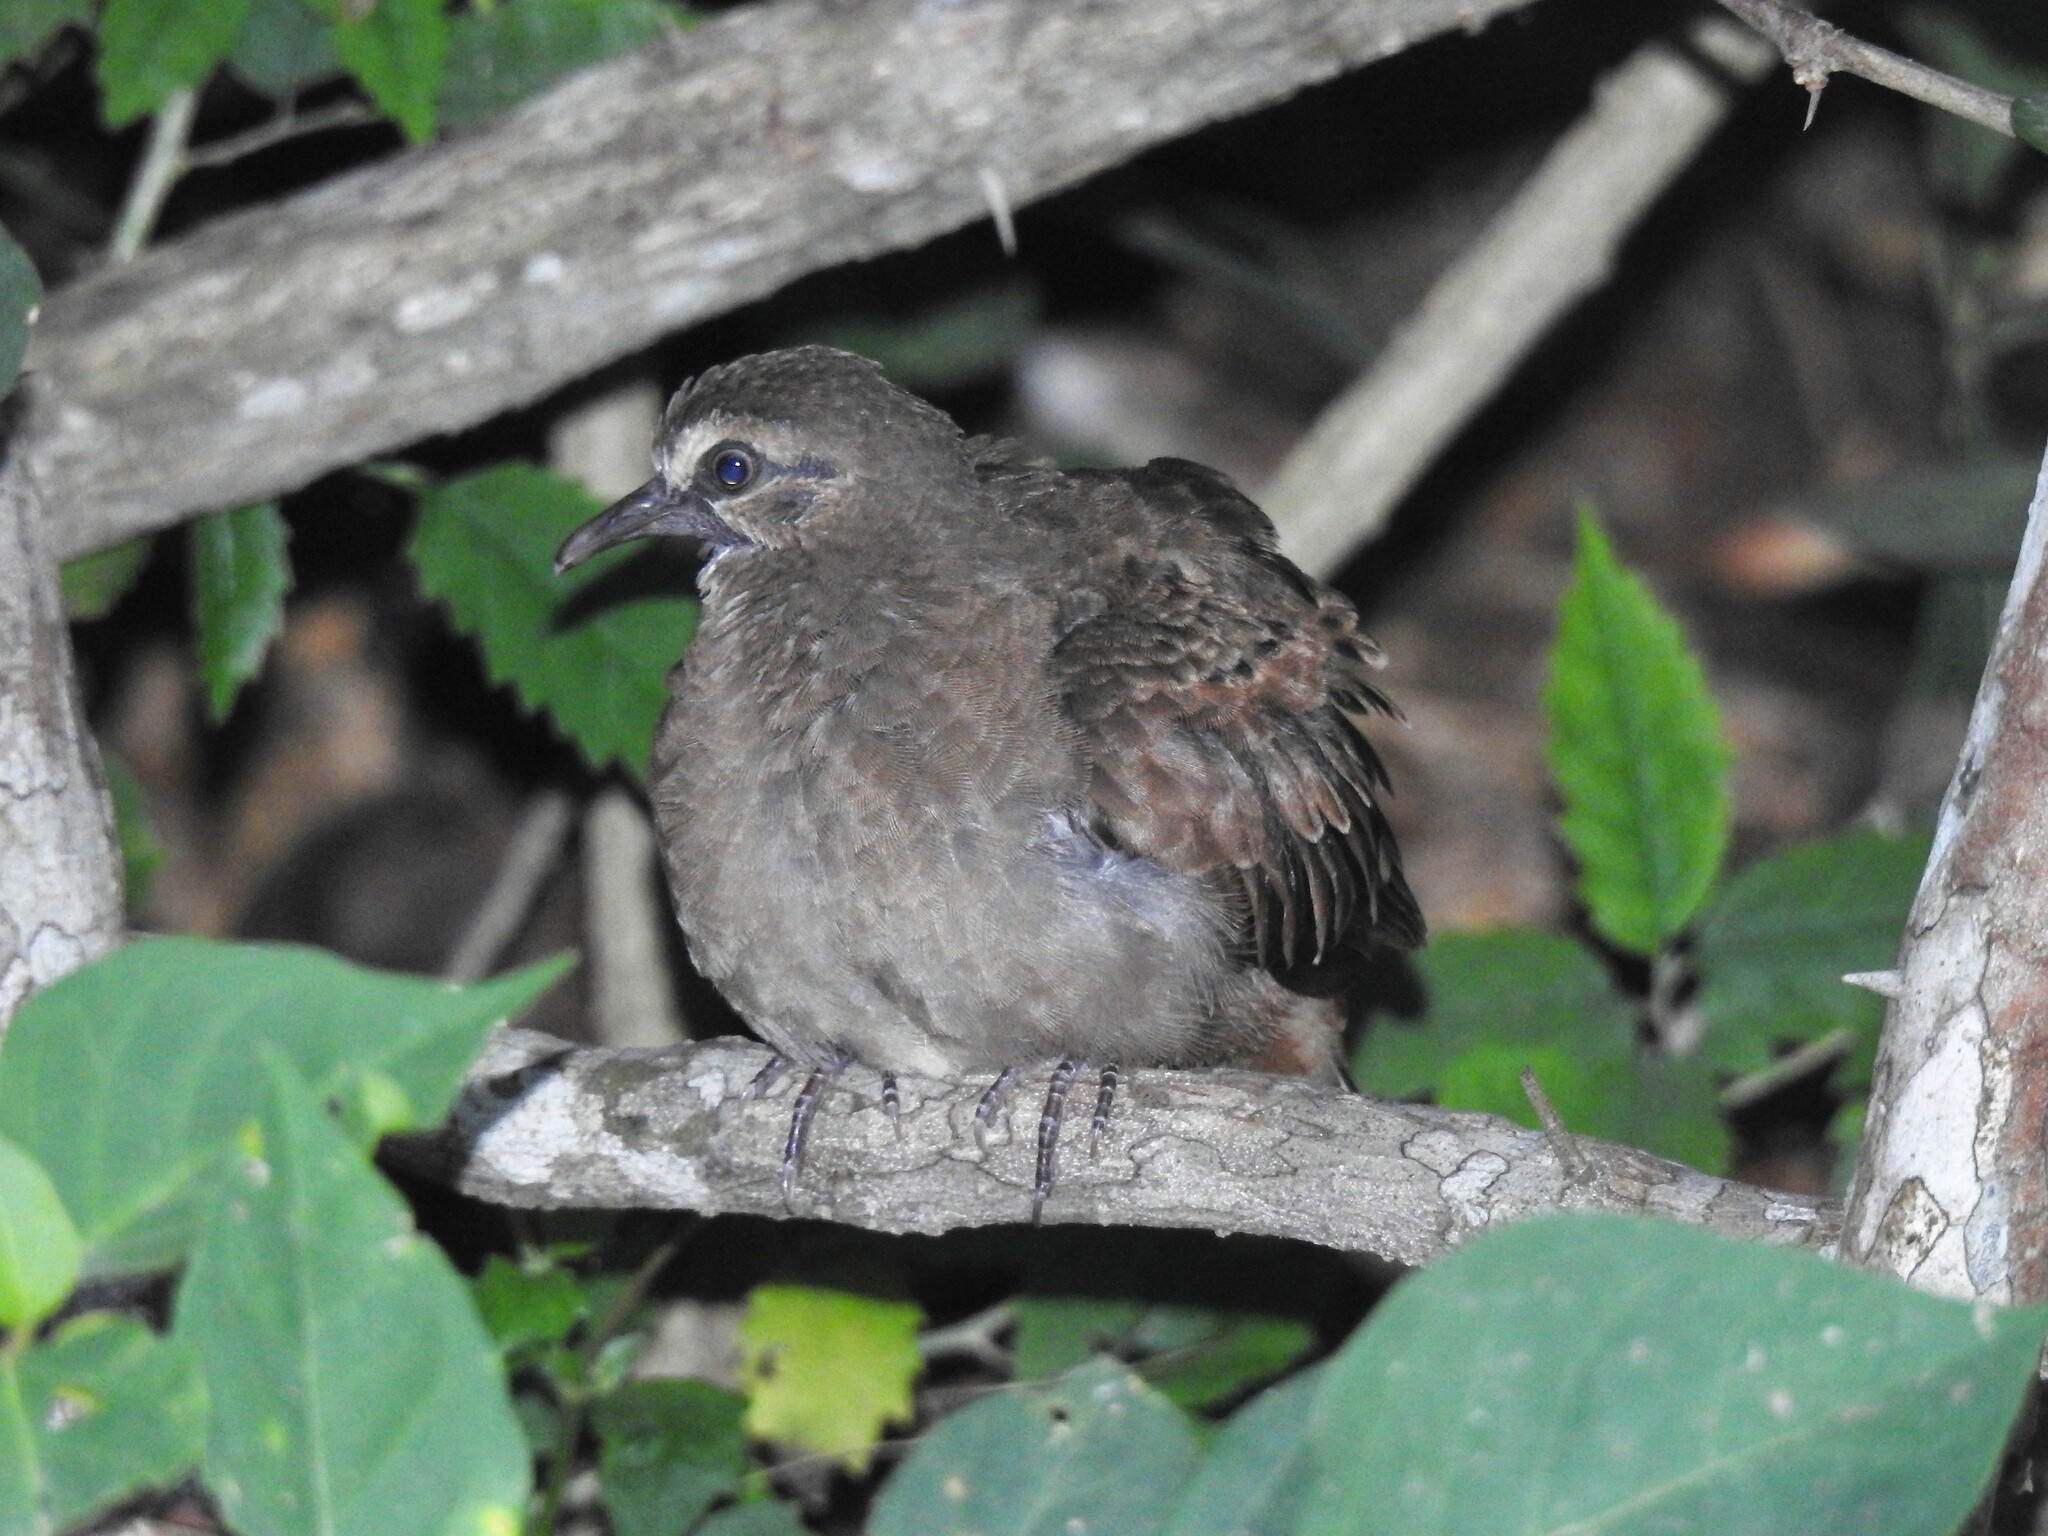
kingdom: Animalia
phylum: Chordata
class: Aves
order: Columbiformes
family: Columbidae
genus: Columbina
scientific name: Columbina talpacoti
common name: Ruddy ground dove
